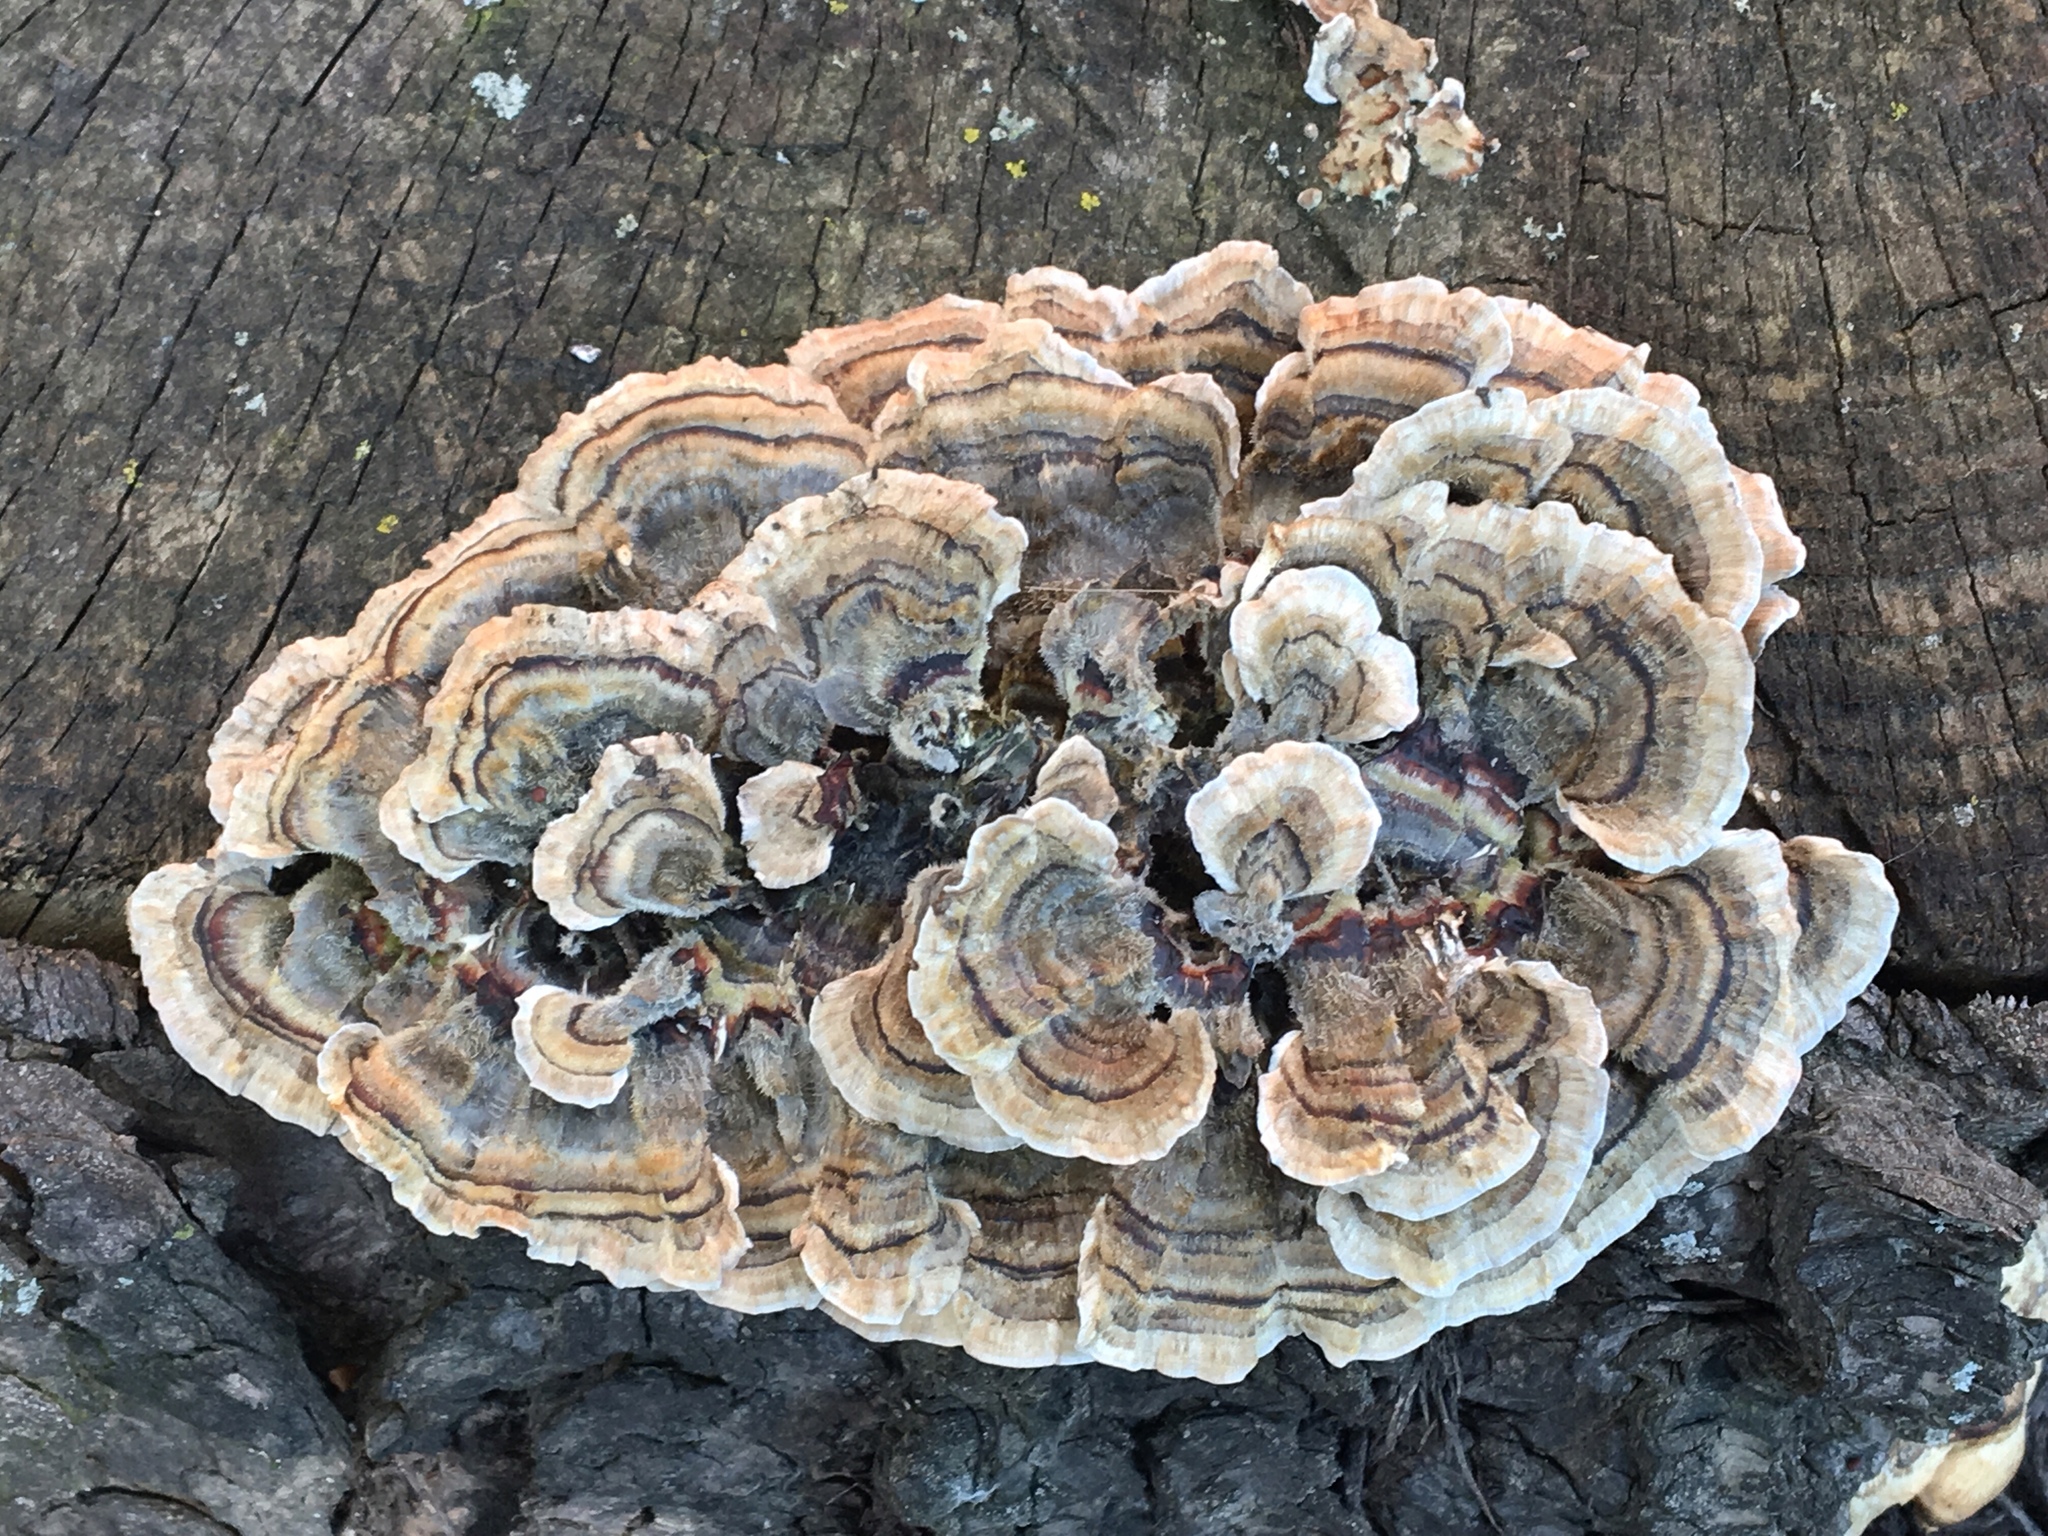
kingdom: Fungi
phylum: Basidiomycota
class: Agaricomycetes
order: Polyporales
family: Polyporaceae
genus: Trametes
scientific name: Trametes versicolor
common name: Turkeytail
